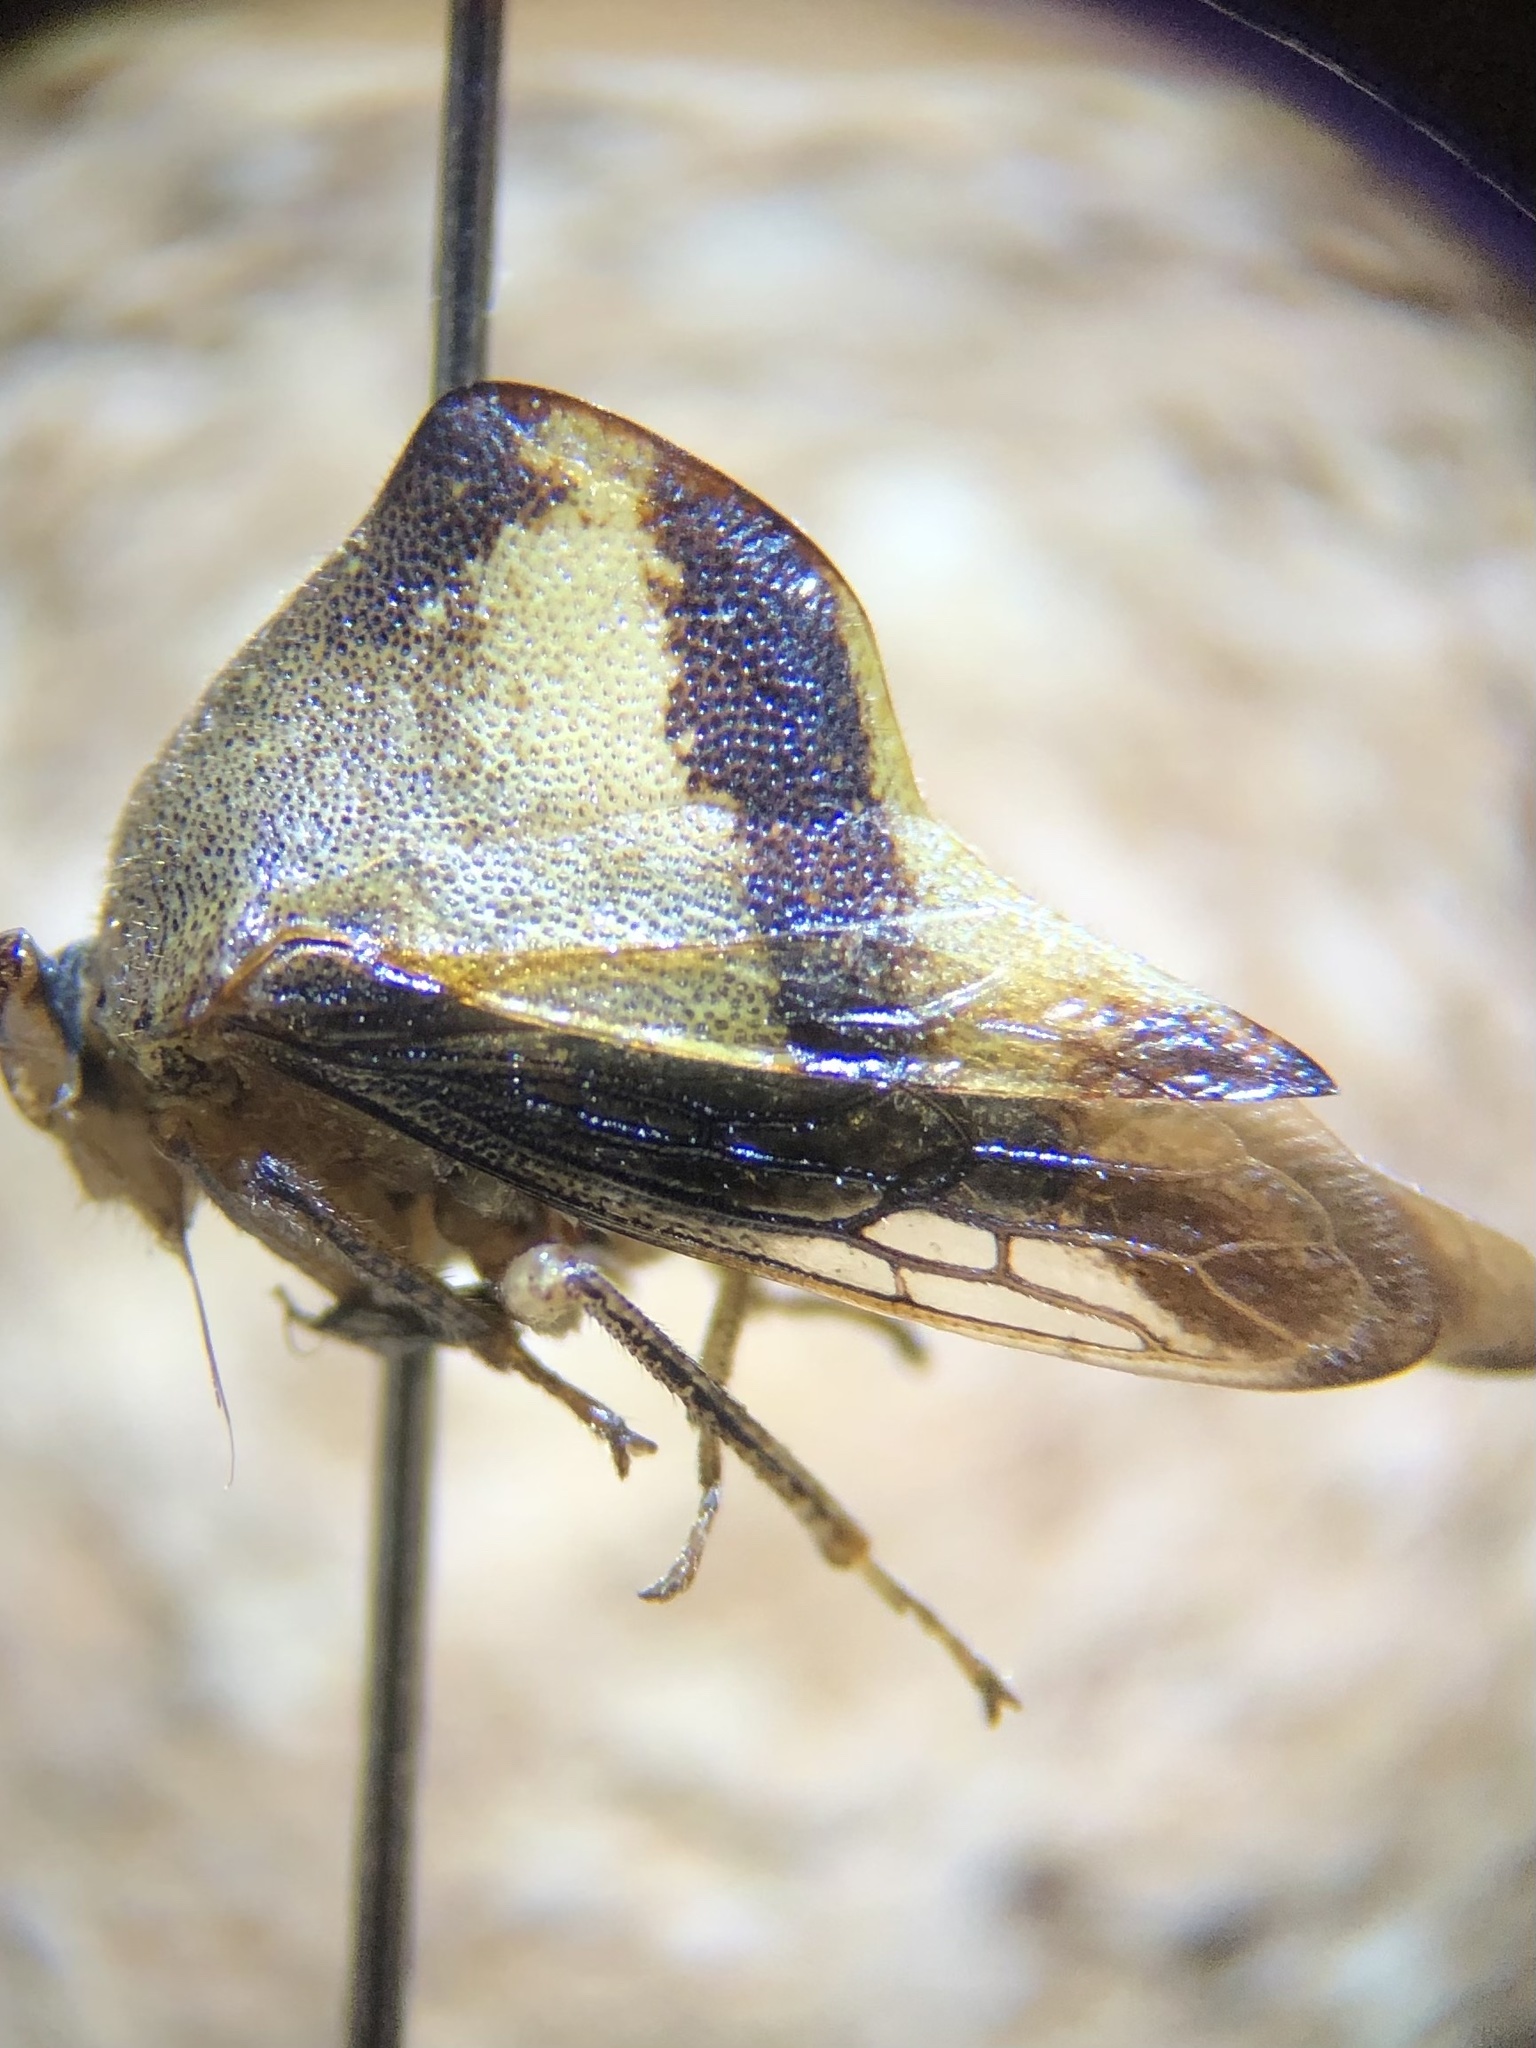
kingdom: Animalia
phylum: Arthropoda
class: Insecta
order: Hemiptera
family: Membracidae
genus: Helonica
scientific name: Helonica excelsa
